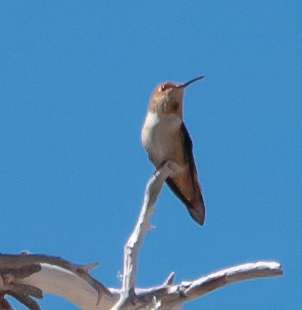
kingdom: Animalia
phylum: Chordata
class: Aves
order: Apodiformes
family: Trochilidae
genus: Selasphorus
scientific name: Selasphorus
